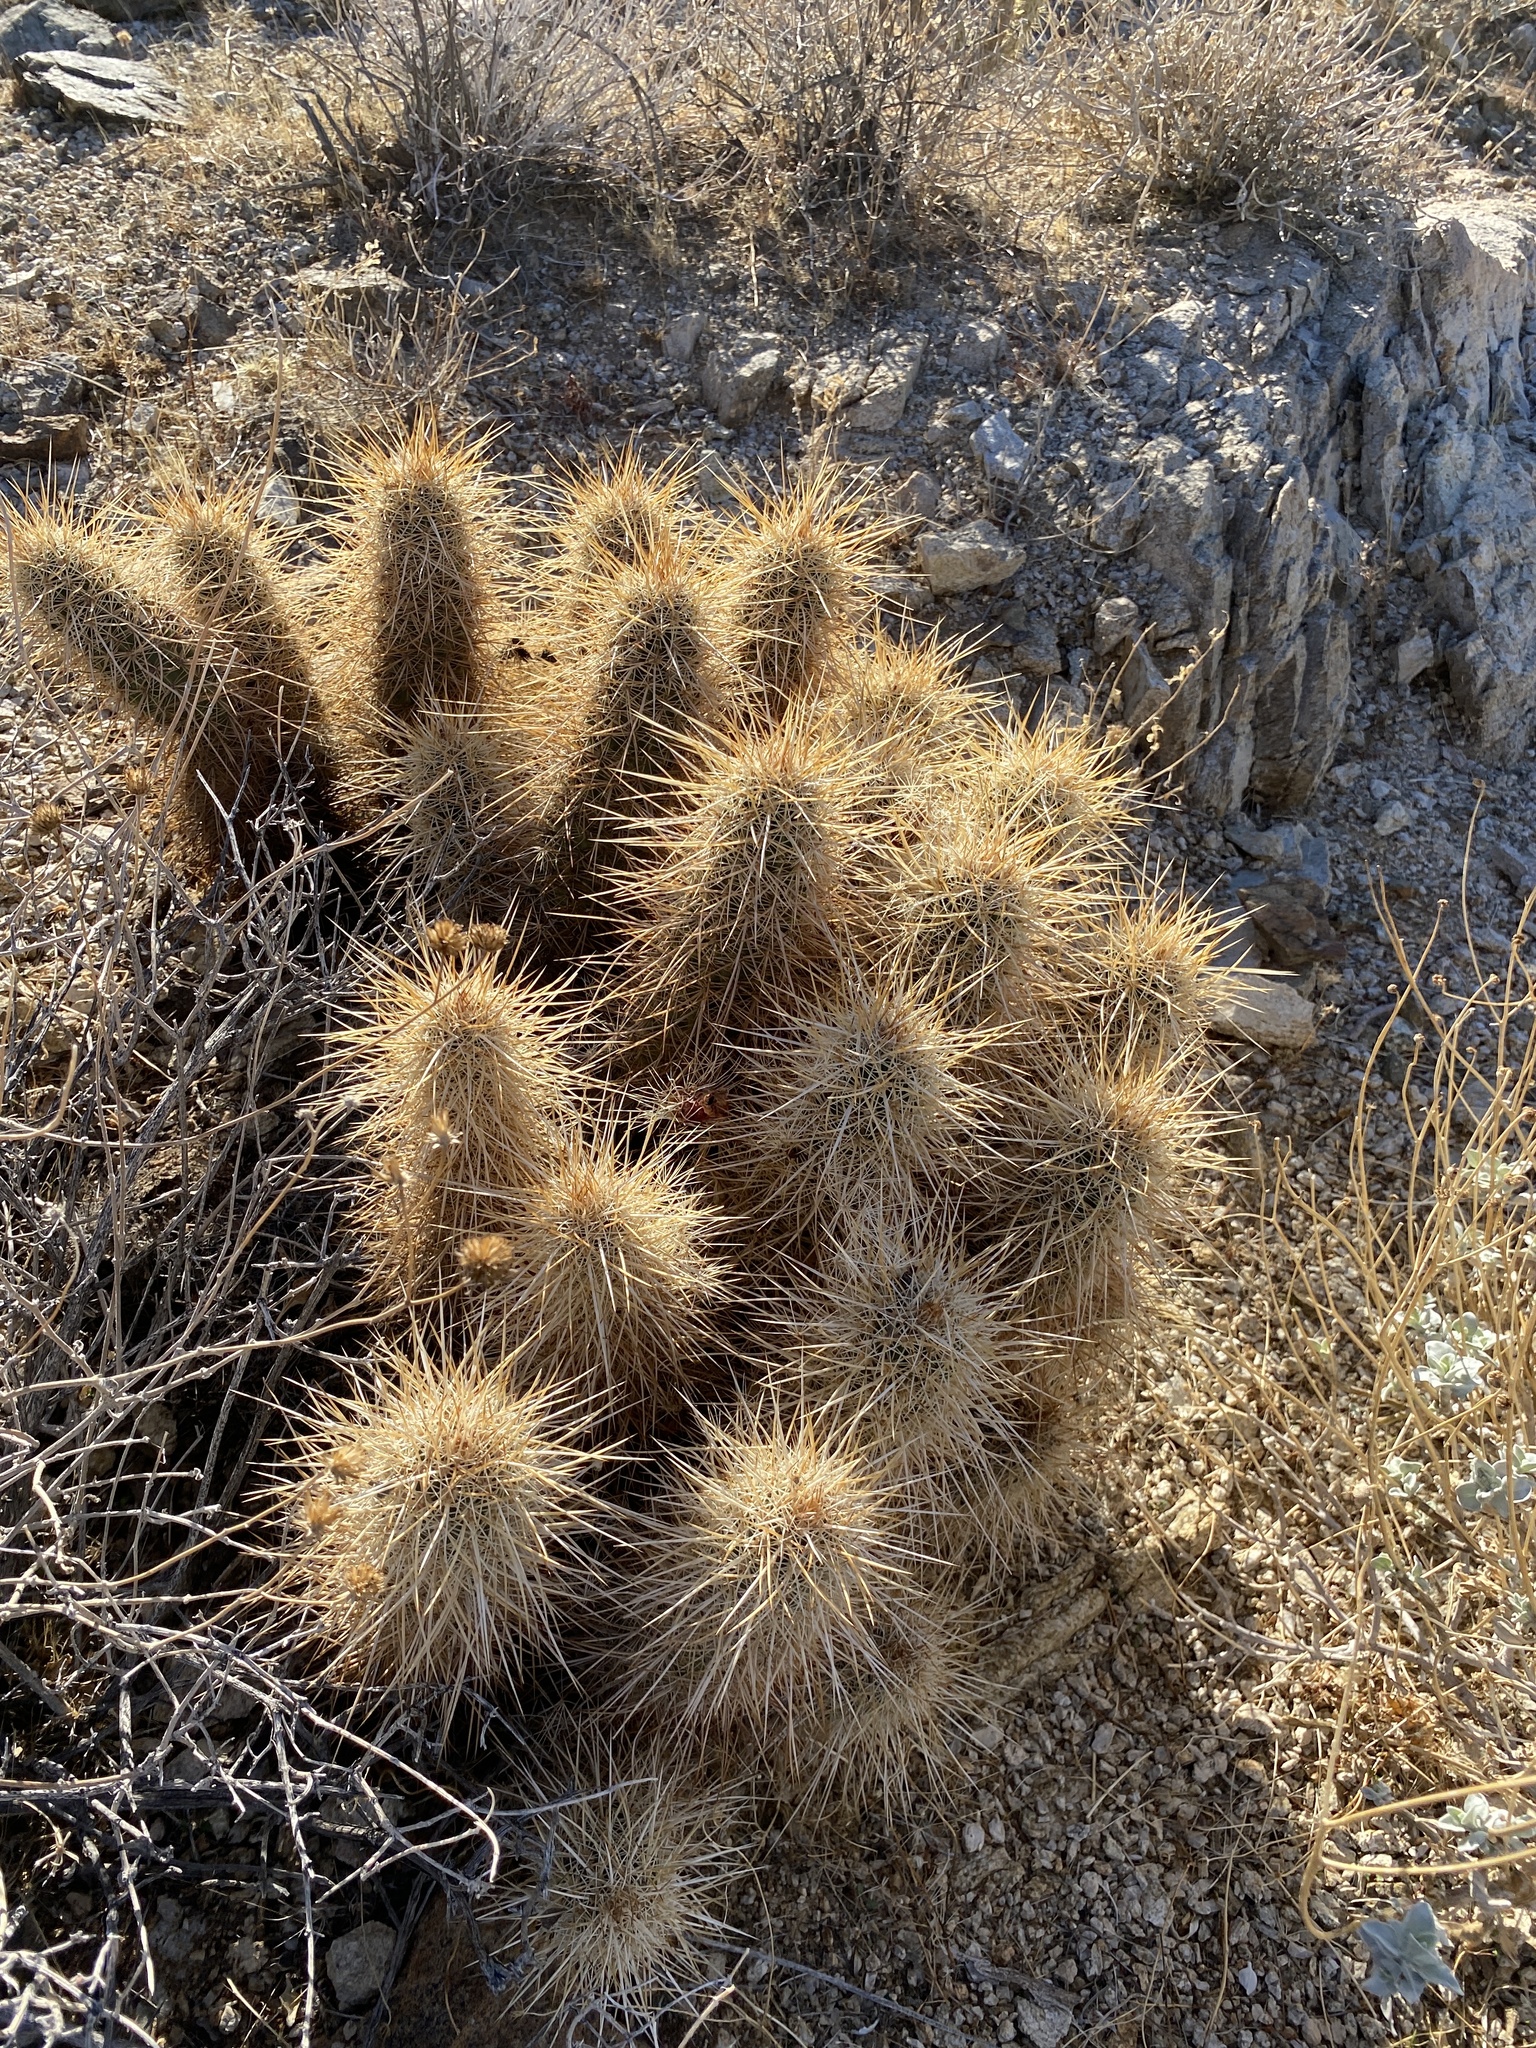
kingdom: Plantae
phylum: Tracheophyta
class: Magnoliopsida
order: Caryophyllales
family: Cactaceae
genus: Echinocereus
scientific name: Echinocereus engelmannii
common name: Engelmann's hedgehog cactus
